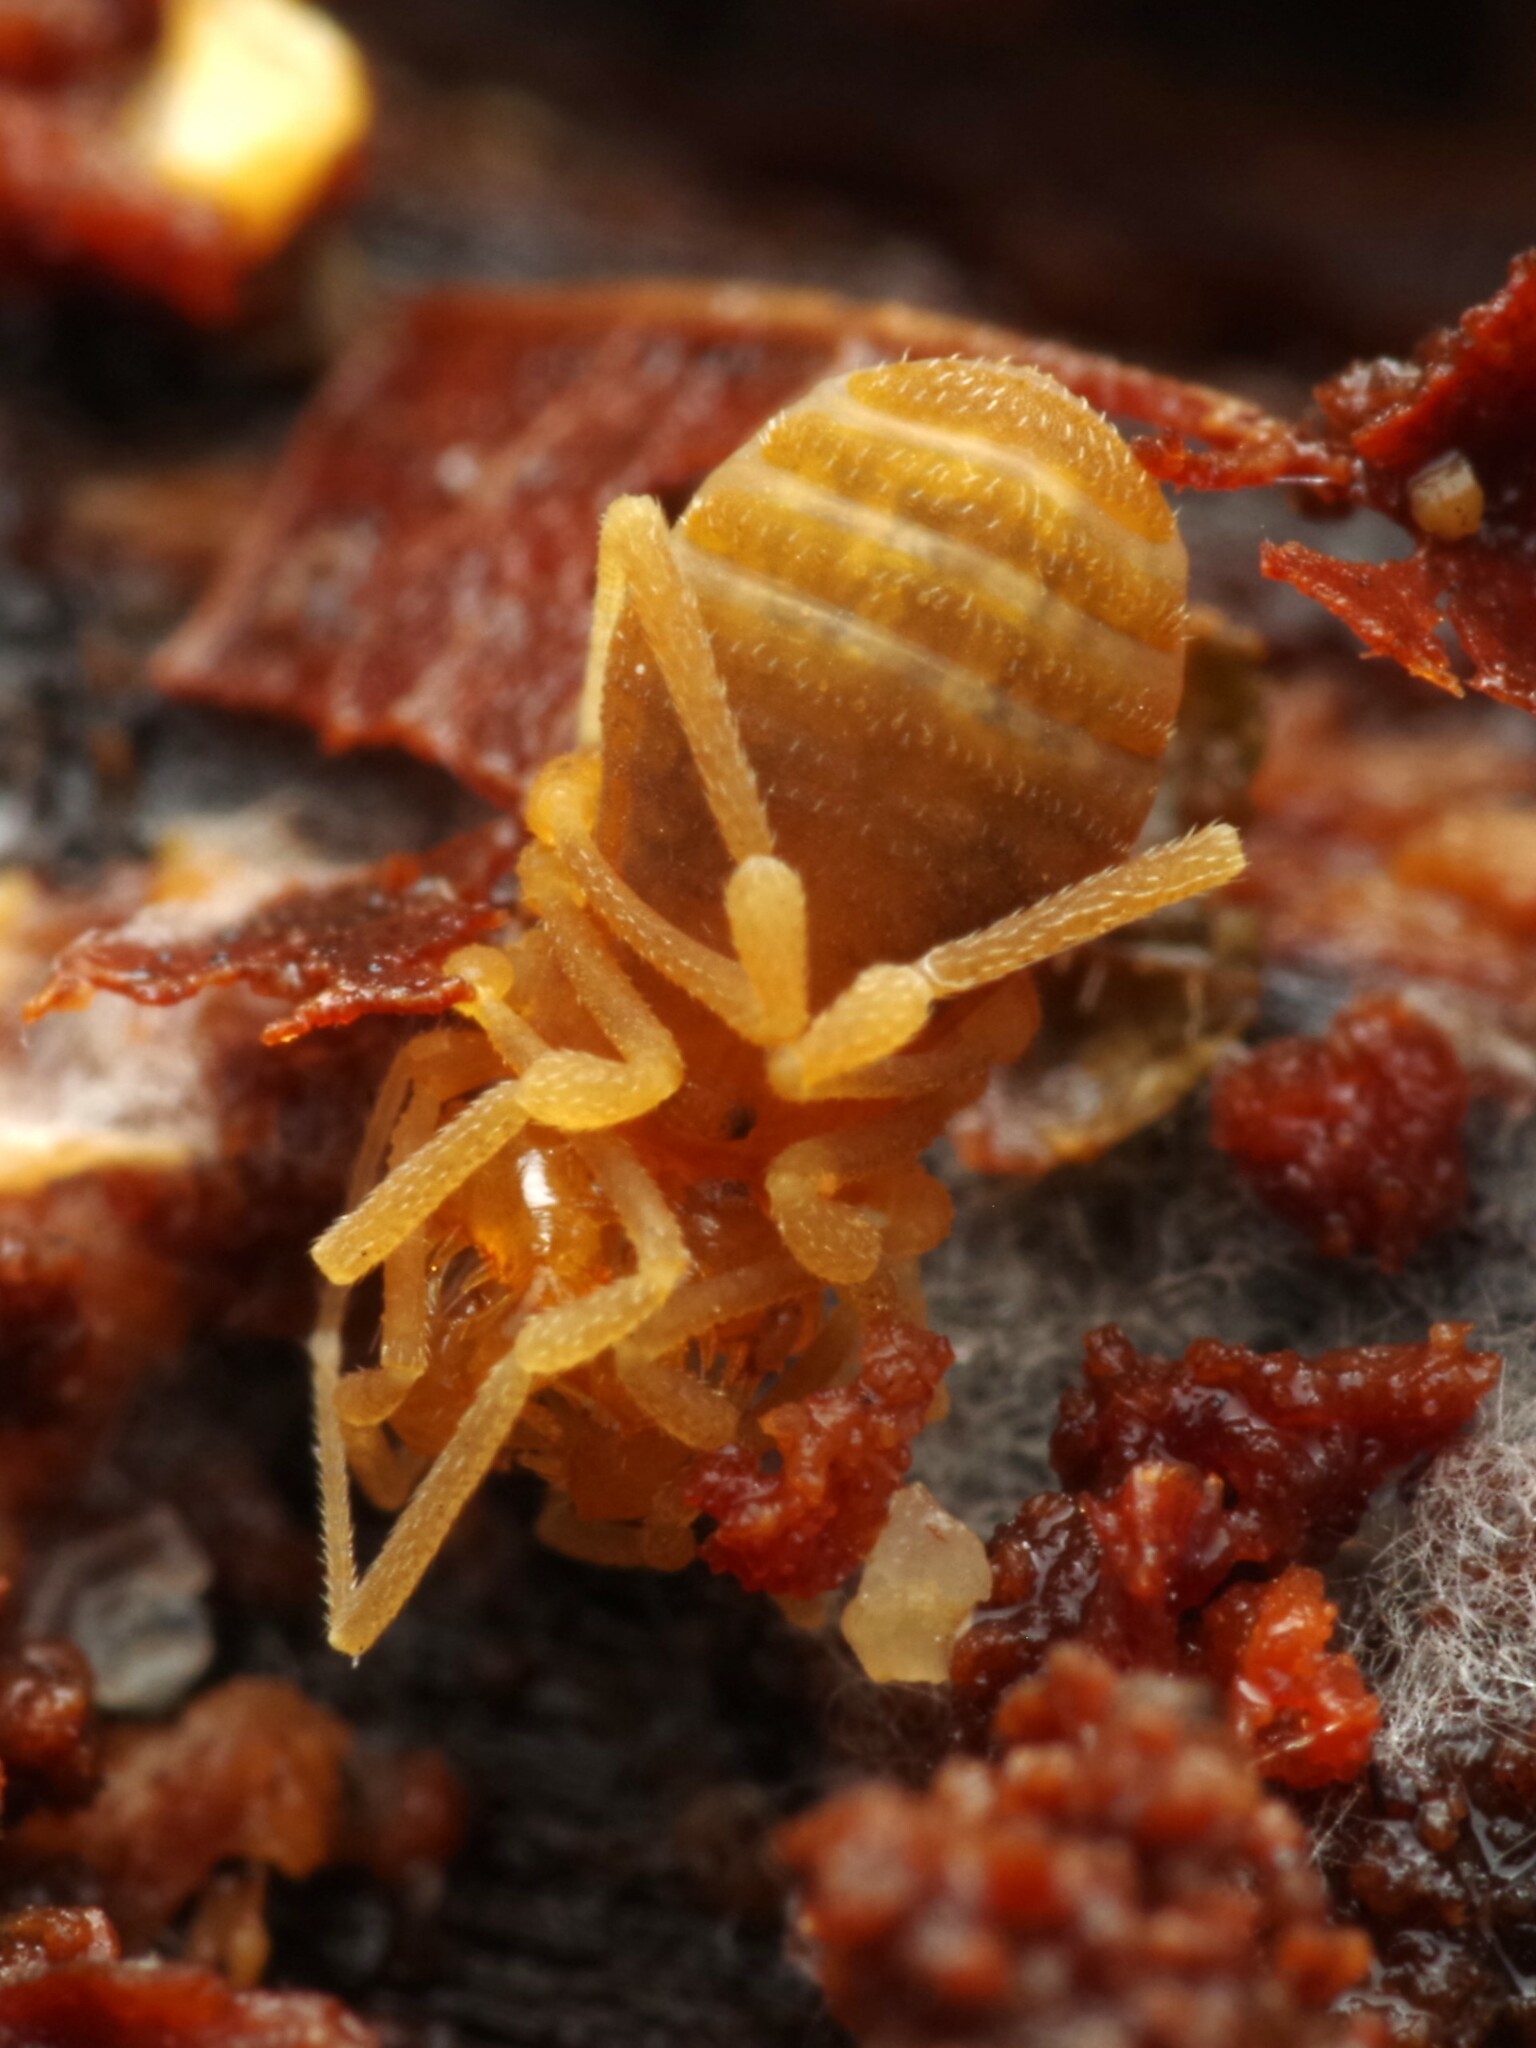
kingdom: Animalia
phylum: Arthropoda
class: Arachnida
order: Opiliones
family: Cladonychiidae
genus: Holoscotolemon
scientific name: Holoscotolemon querilhaci
